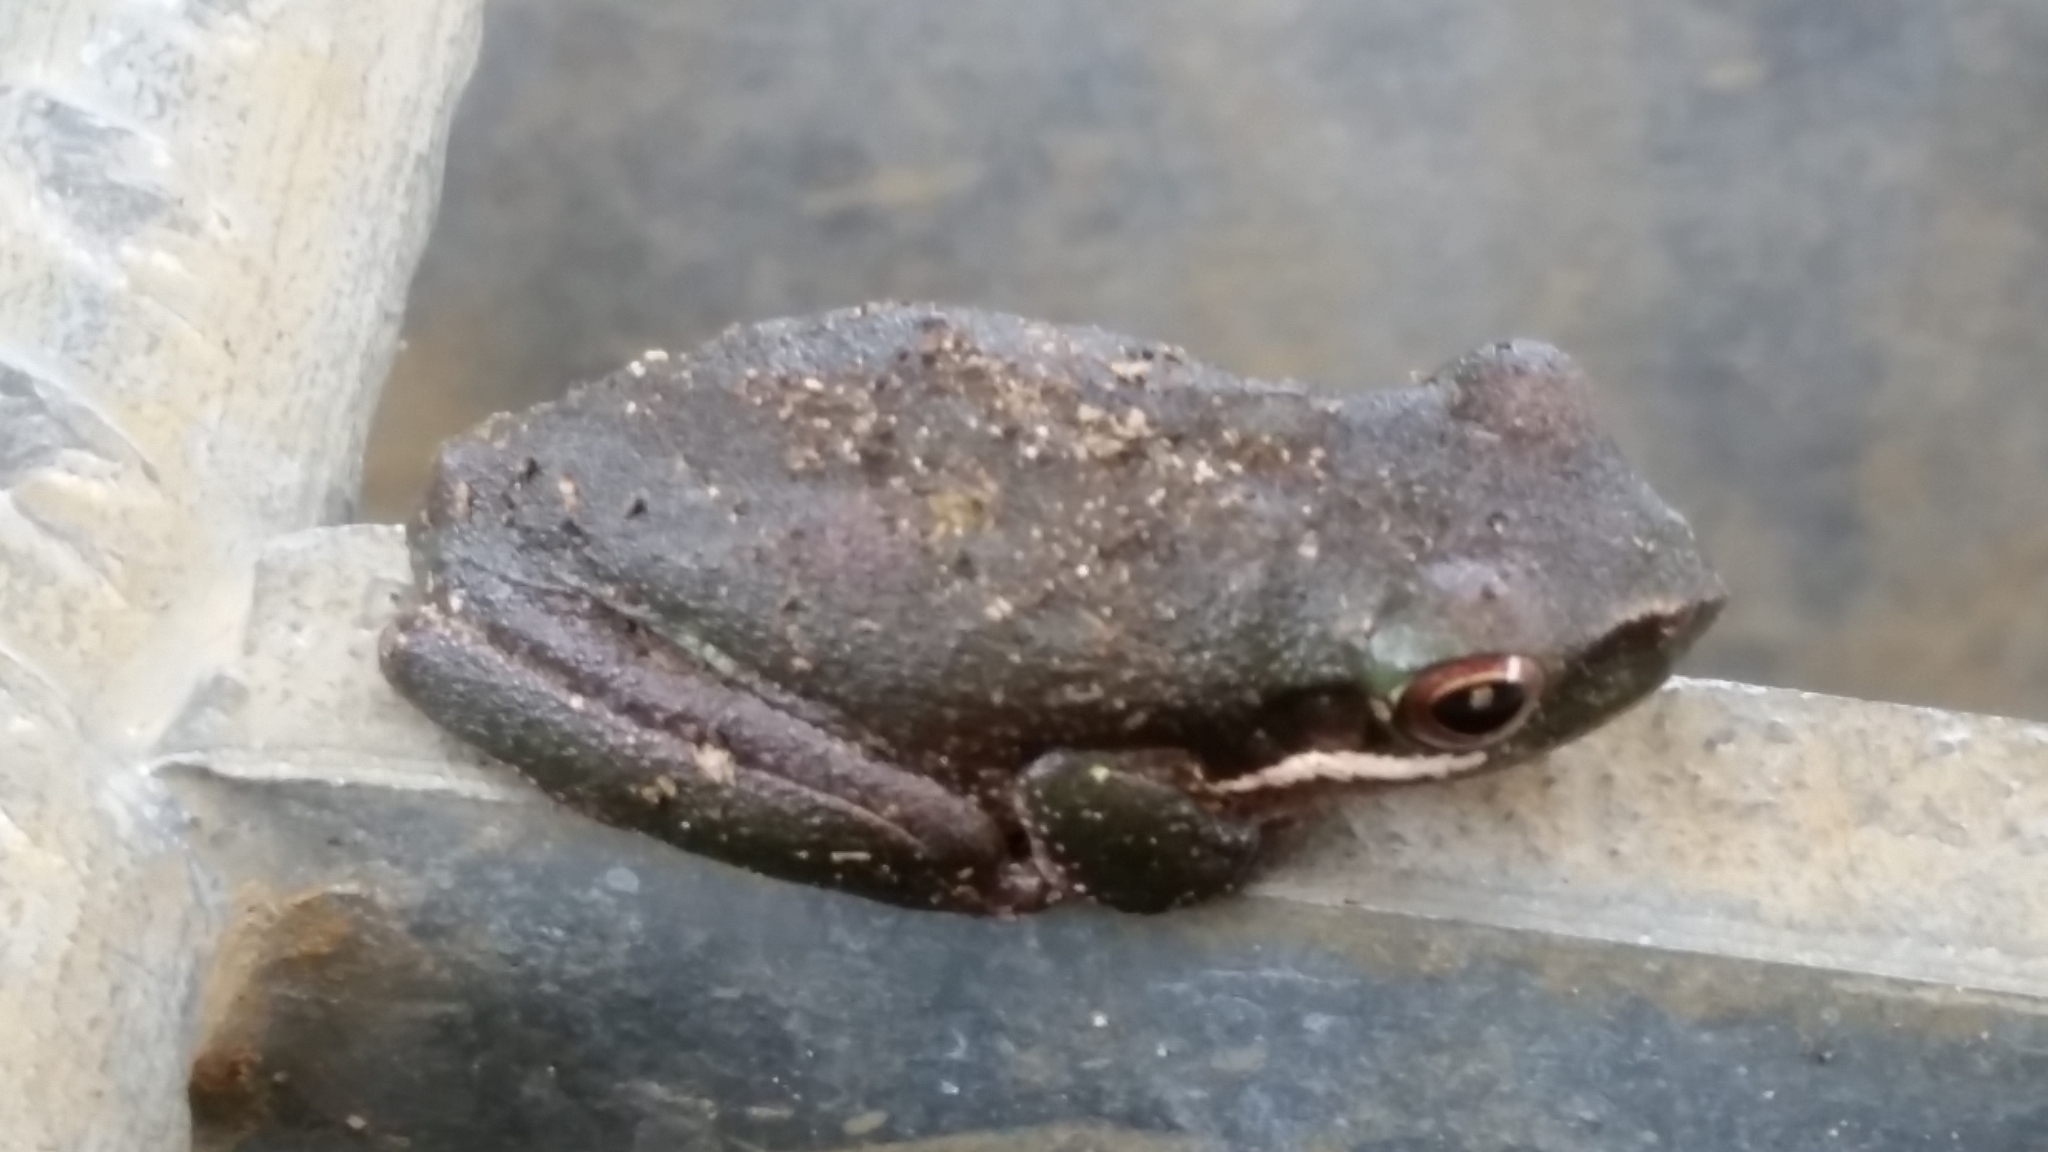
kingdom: Animalia
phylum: Chordata
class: Amphibia
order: Anura
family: Pelodryadidae
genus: Litoria
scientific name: Litoria fallax
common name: Eastern dwarf treefrog
